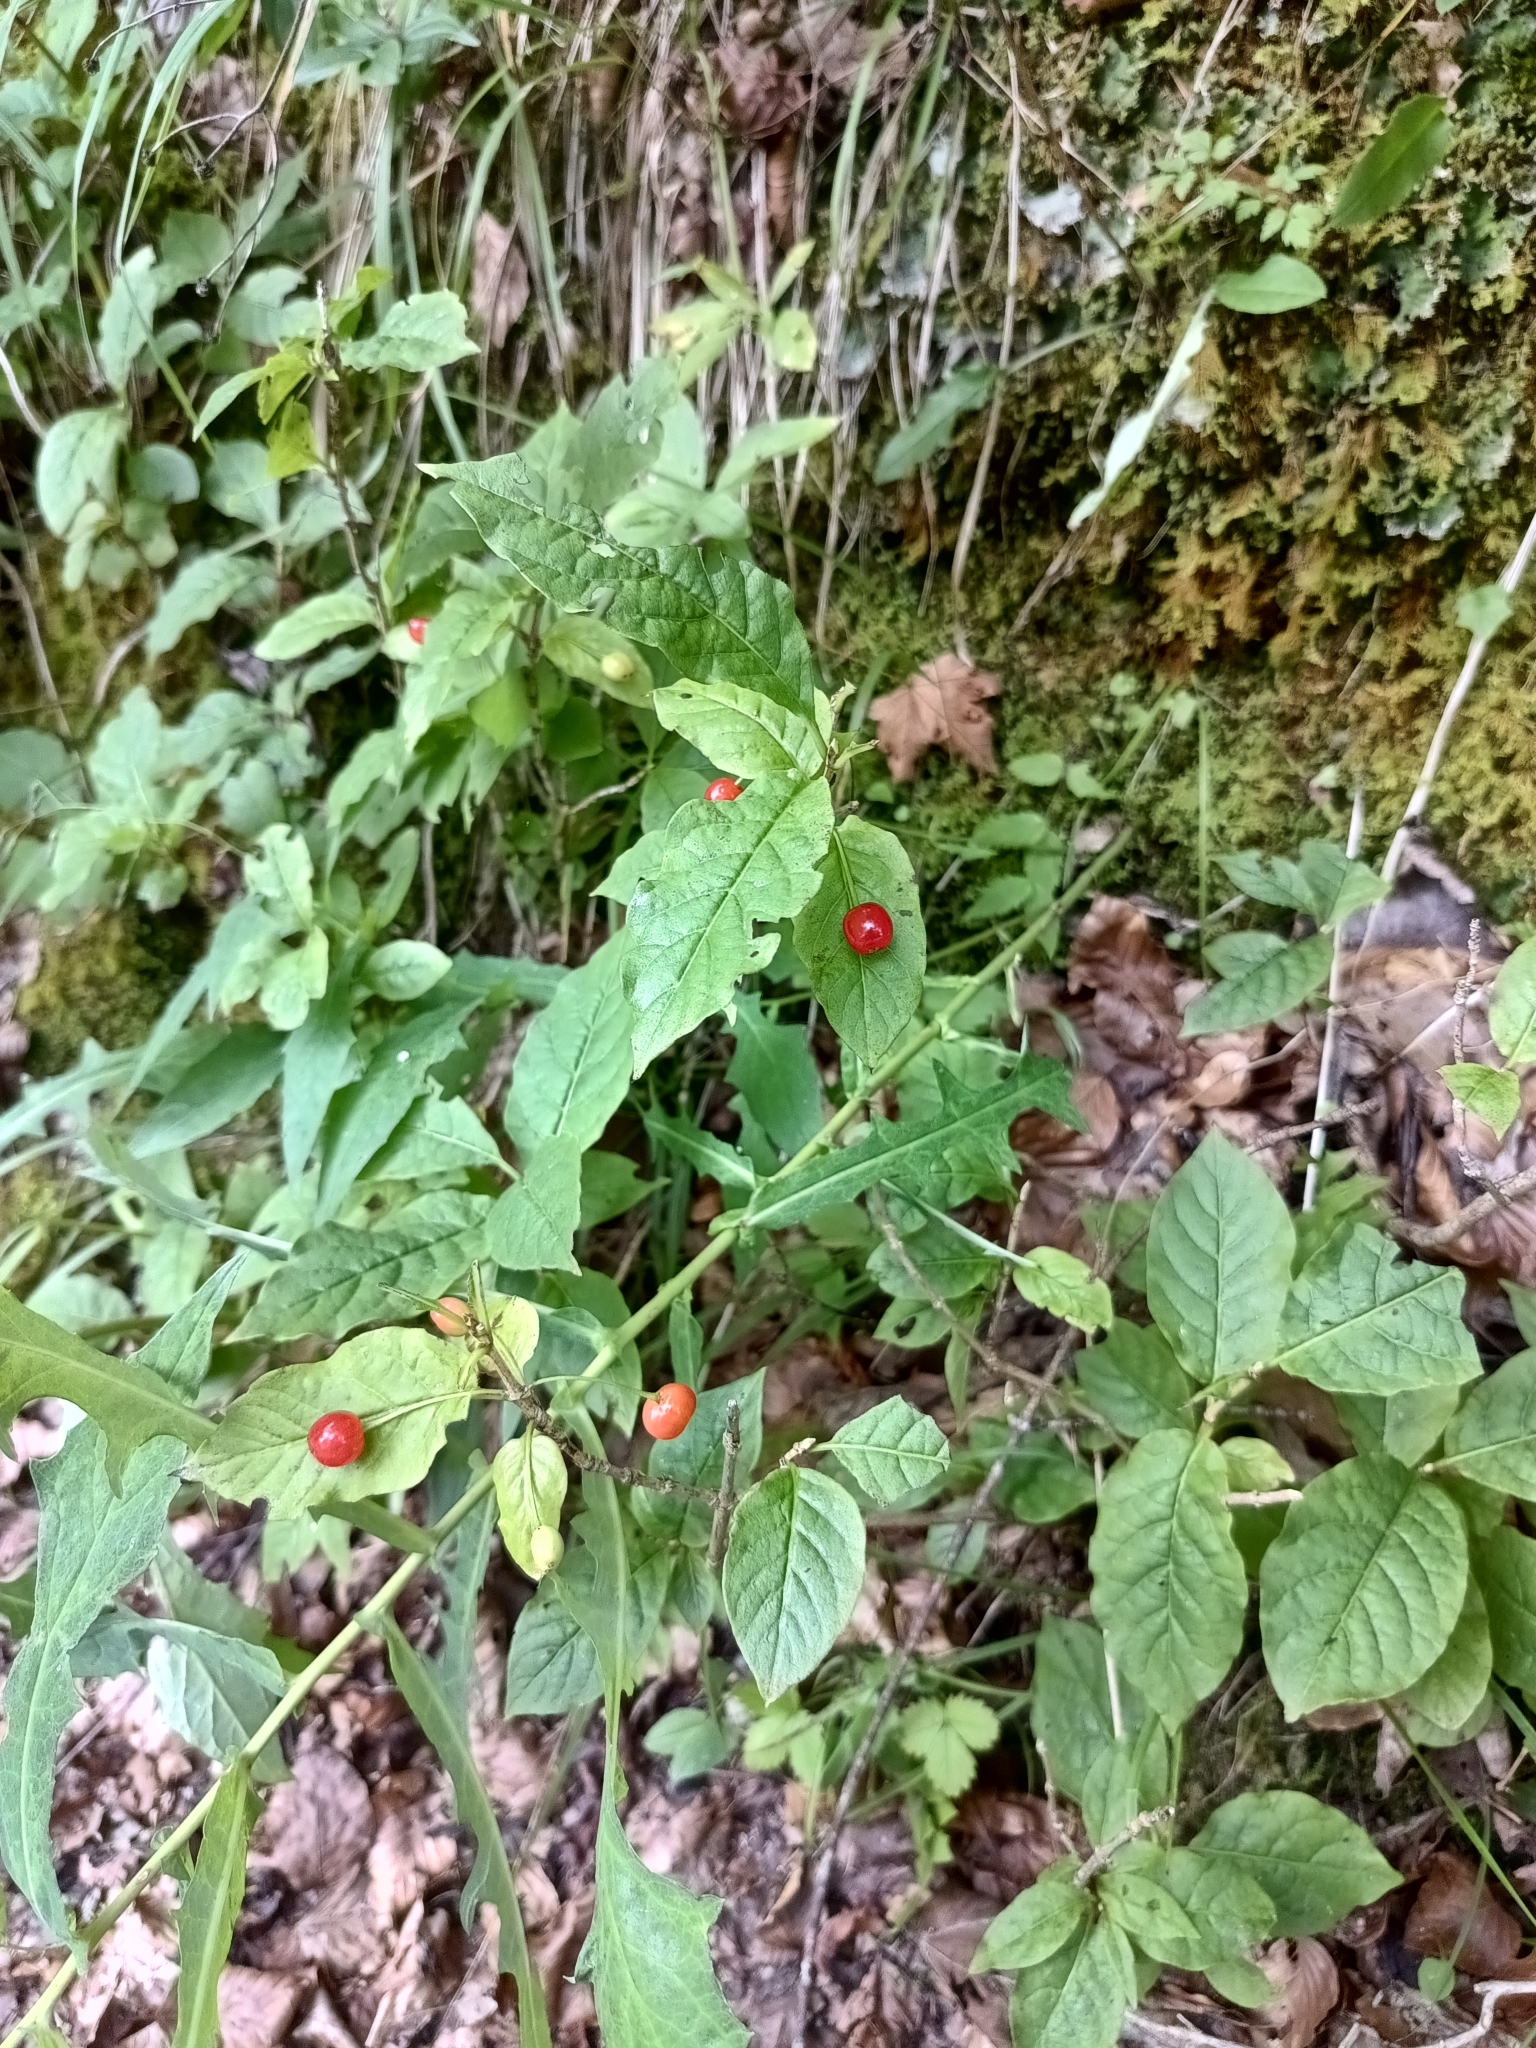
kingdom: Plantae
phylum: Tracheophyta
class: Magnoliopsida
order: Dipsacales
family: Caprifoliaceae
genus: Lonicera
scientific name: Lonicera alpigena
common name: Alpine honeysuckle
